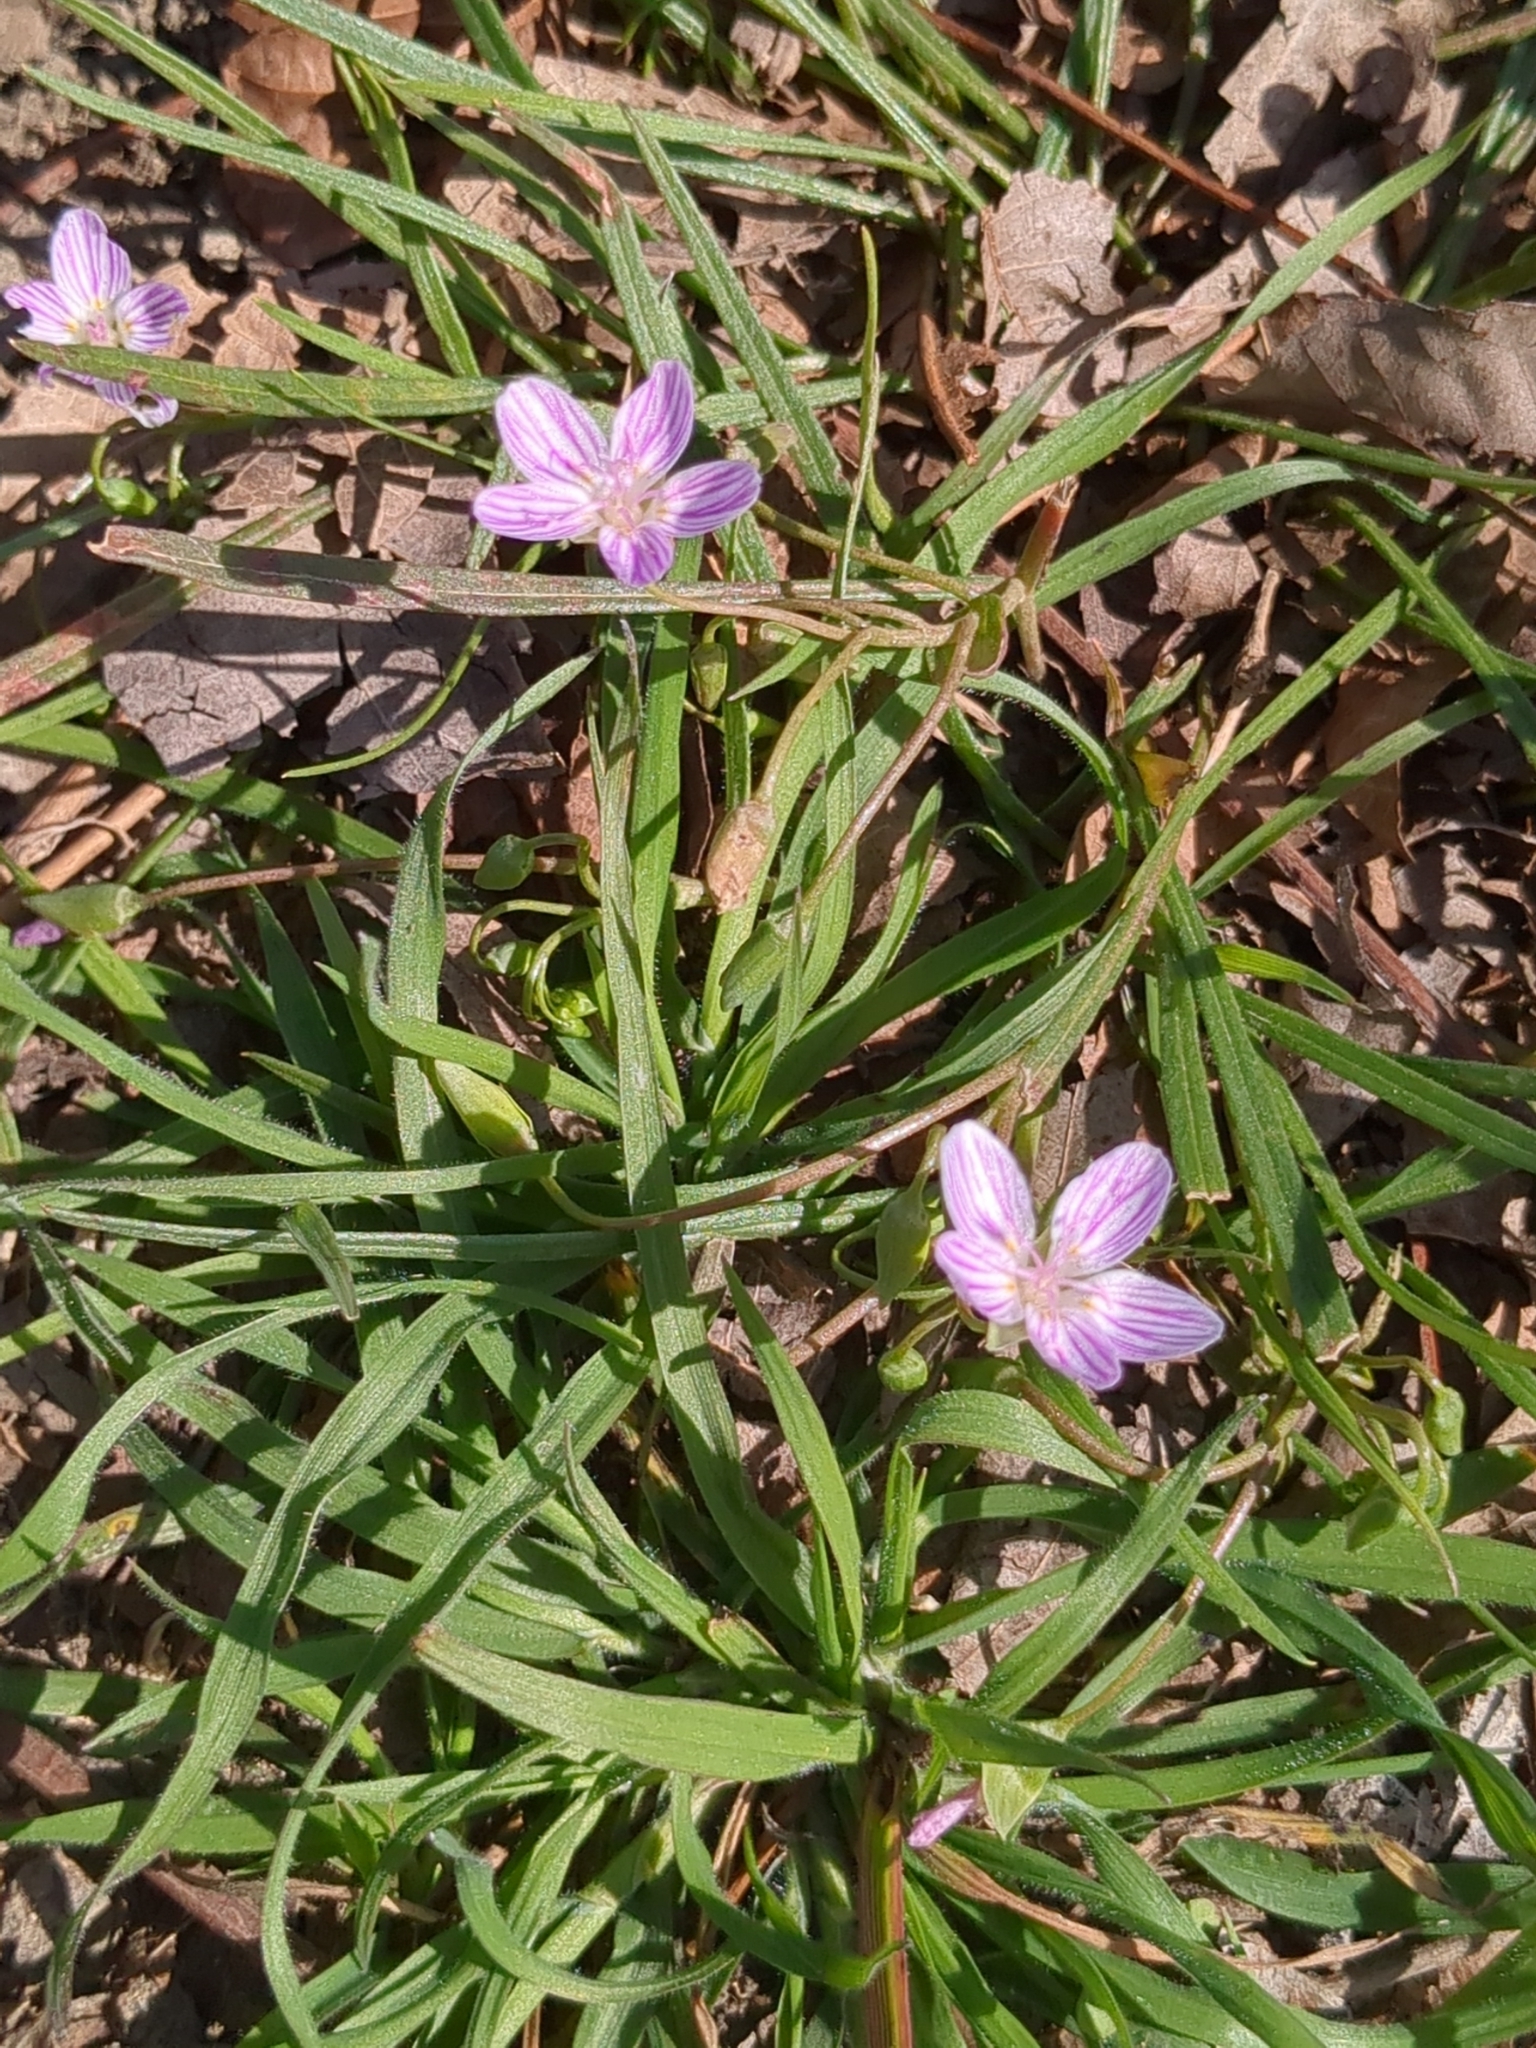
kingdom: Plantae
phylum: Tracheophyta
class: Magnoliopsida
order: Caryophyllales
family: Montiaceae
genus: Claytonia
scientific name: Claytonia virginica
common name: Virginia springbeauty
